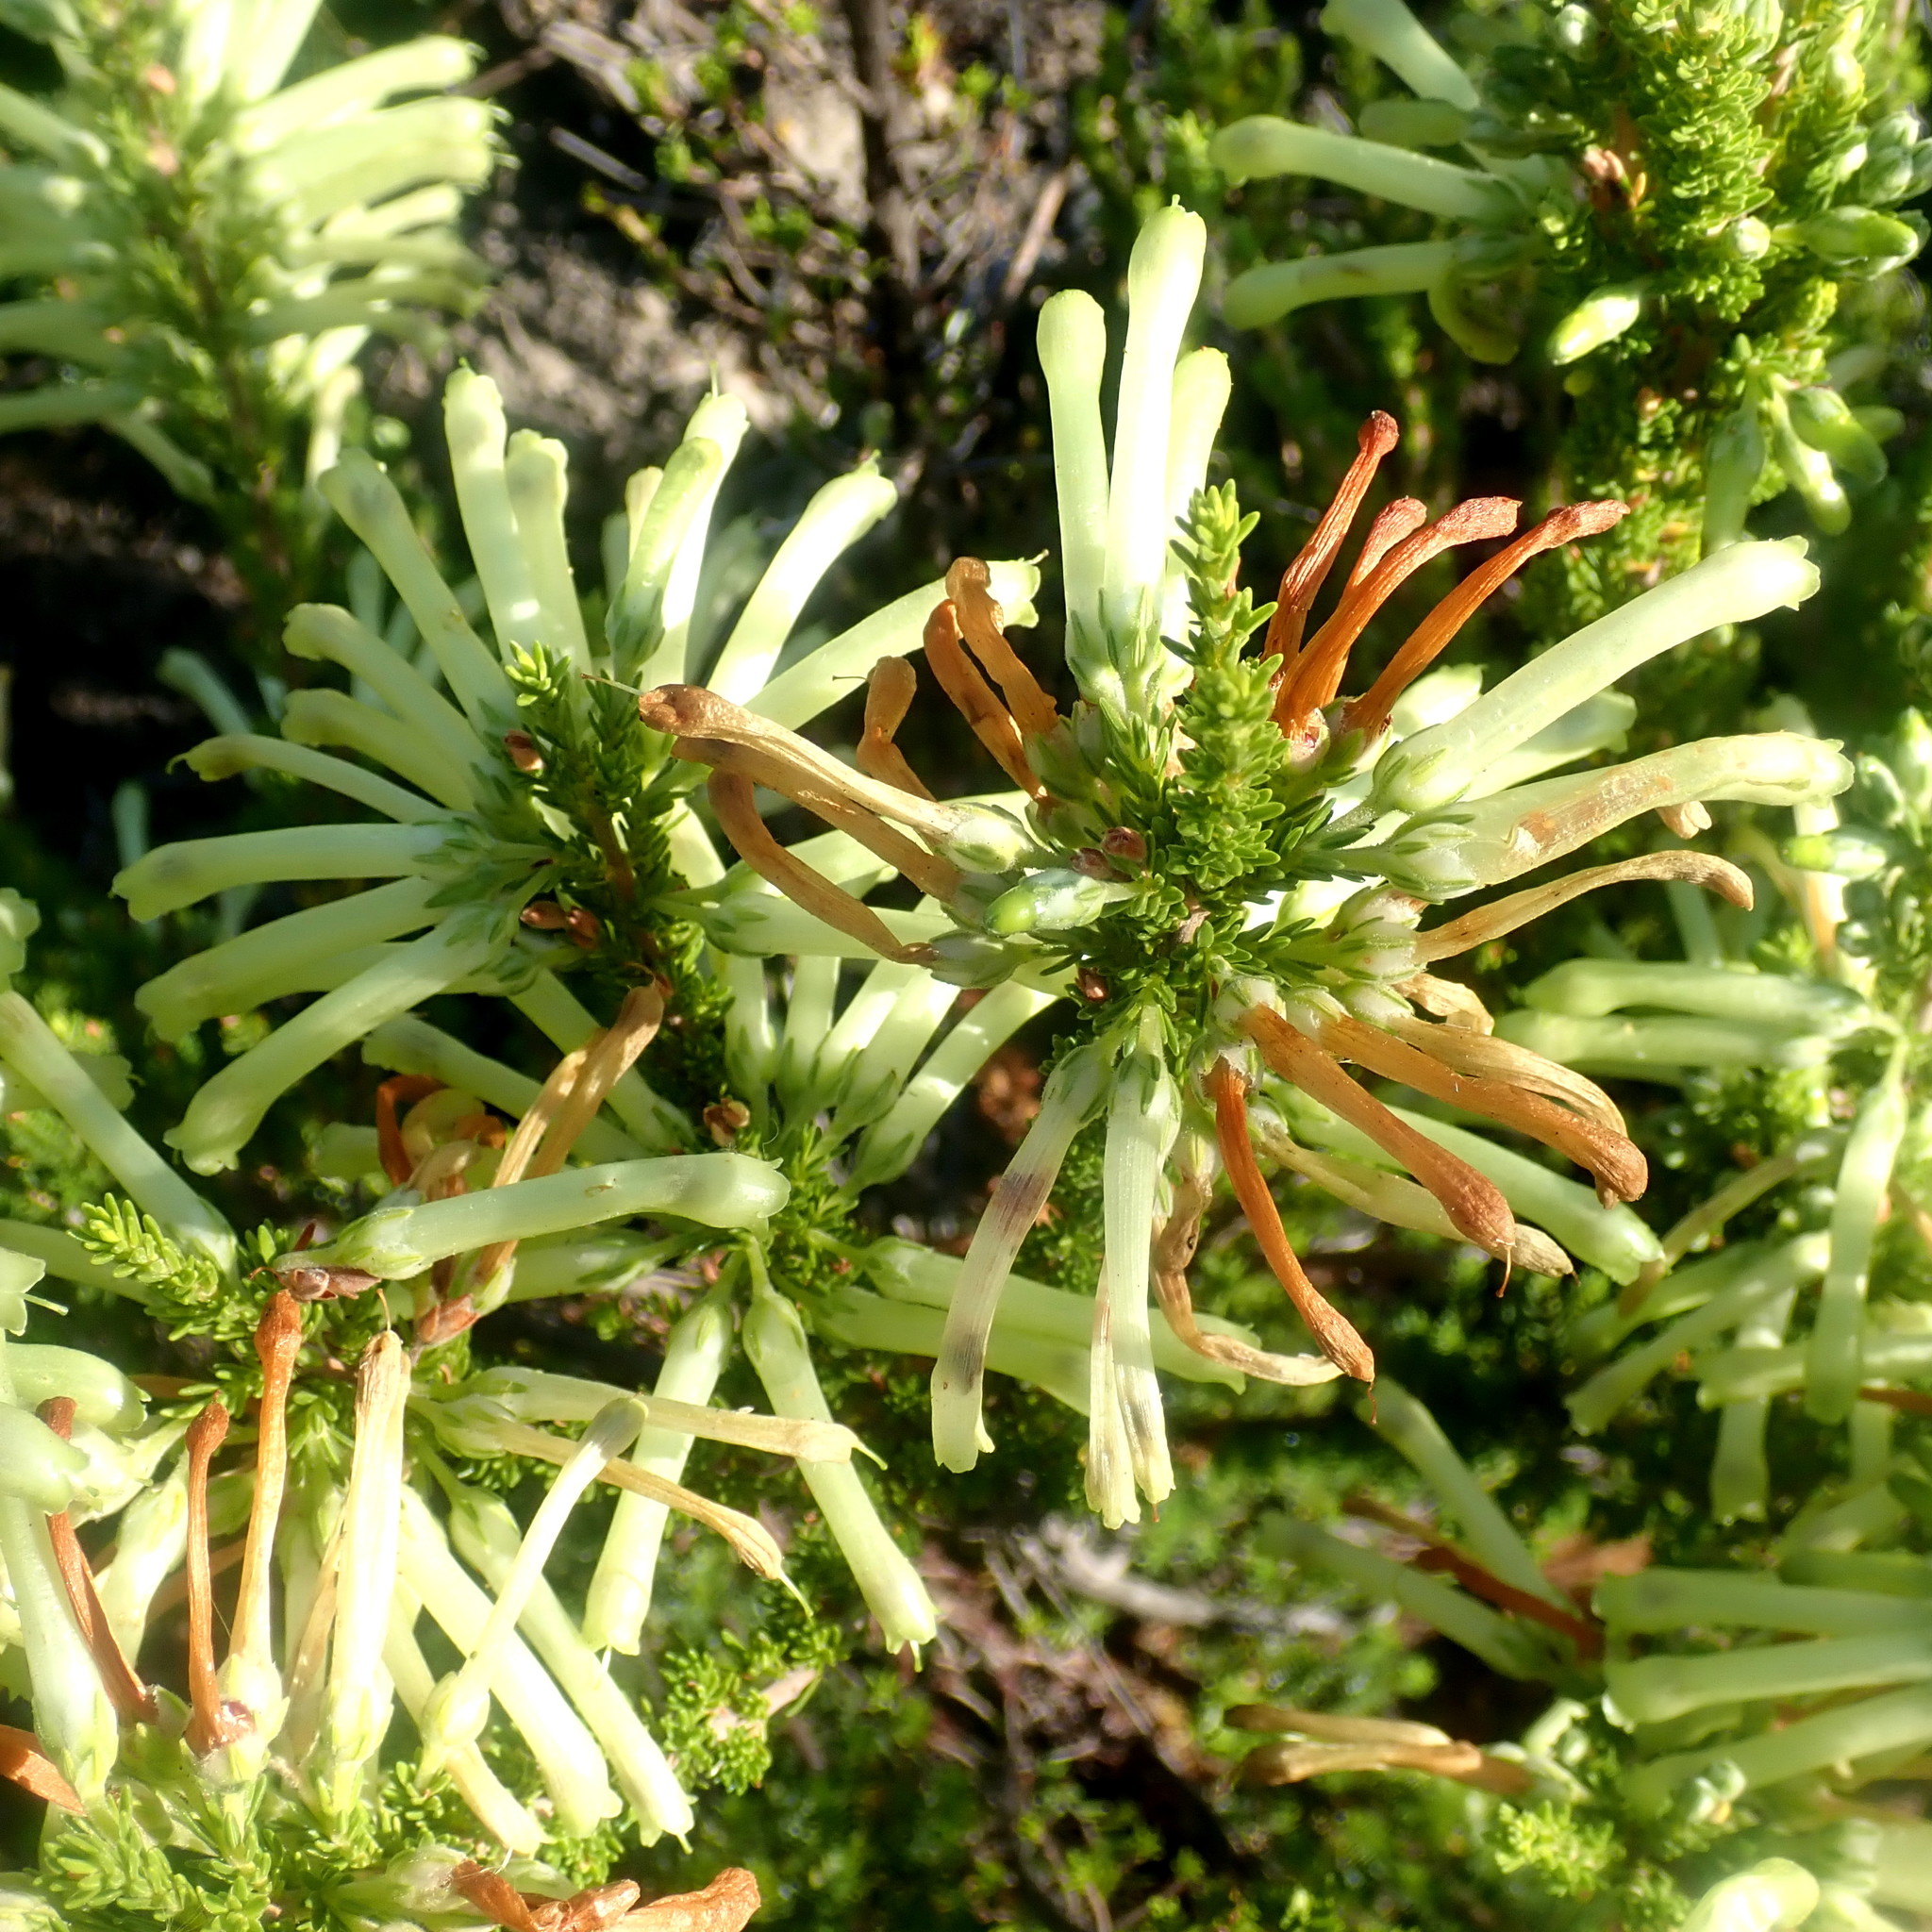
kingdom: Plantae
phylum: Tracheophyta
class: Magnoliopsida
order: Ericales
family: Ericaceae
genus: Erica
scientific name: Erica discolor
